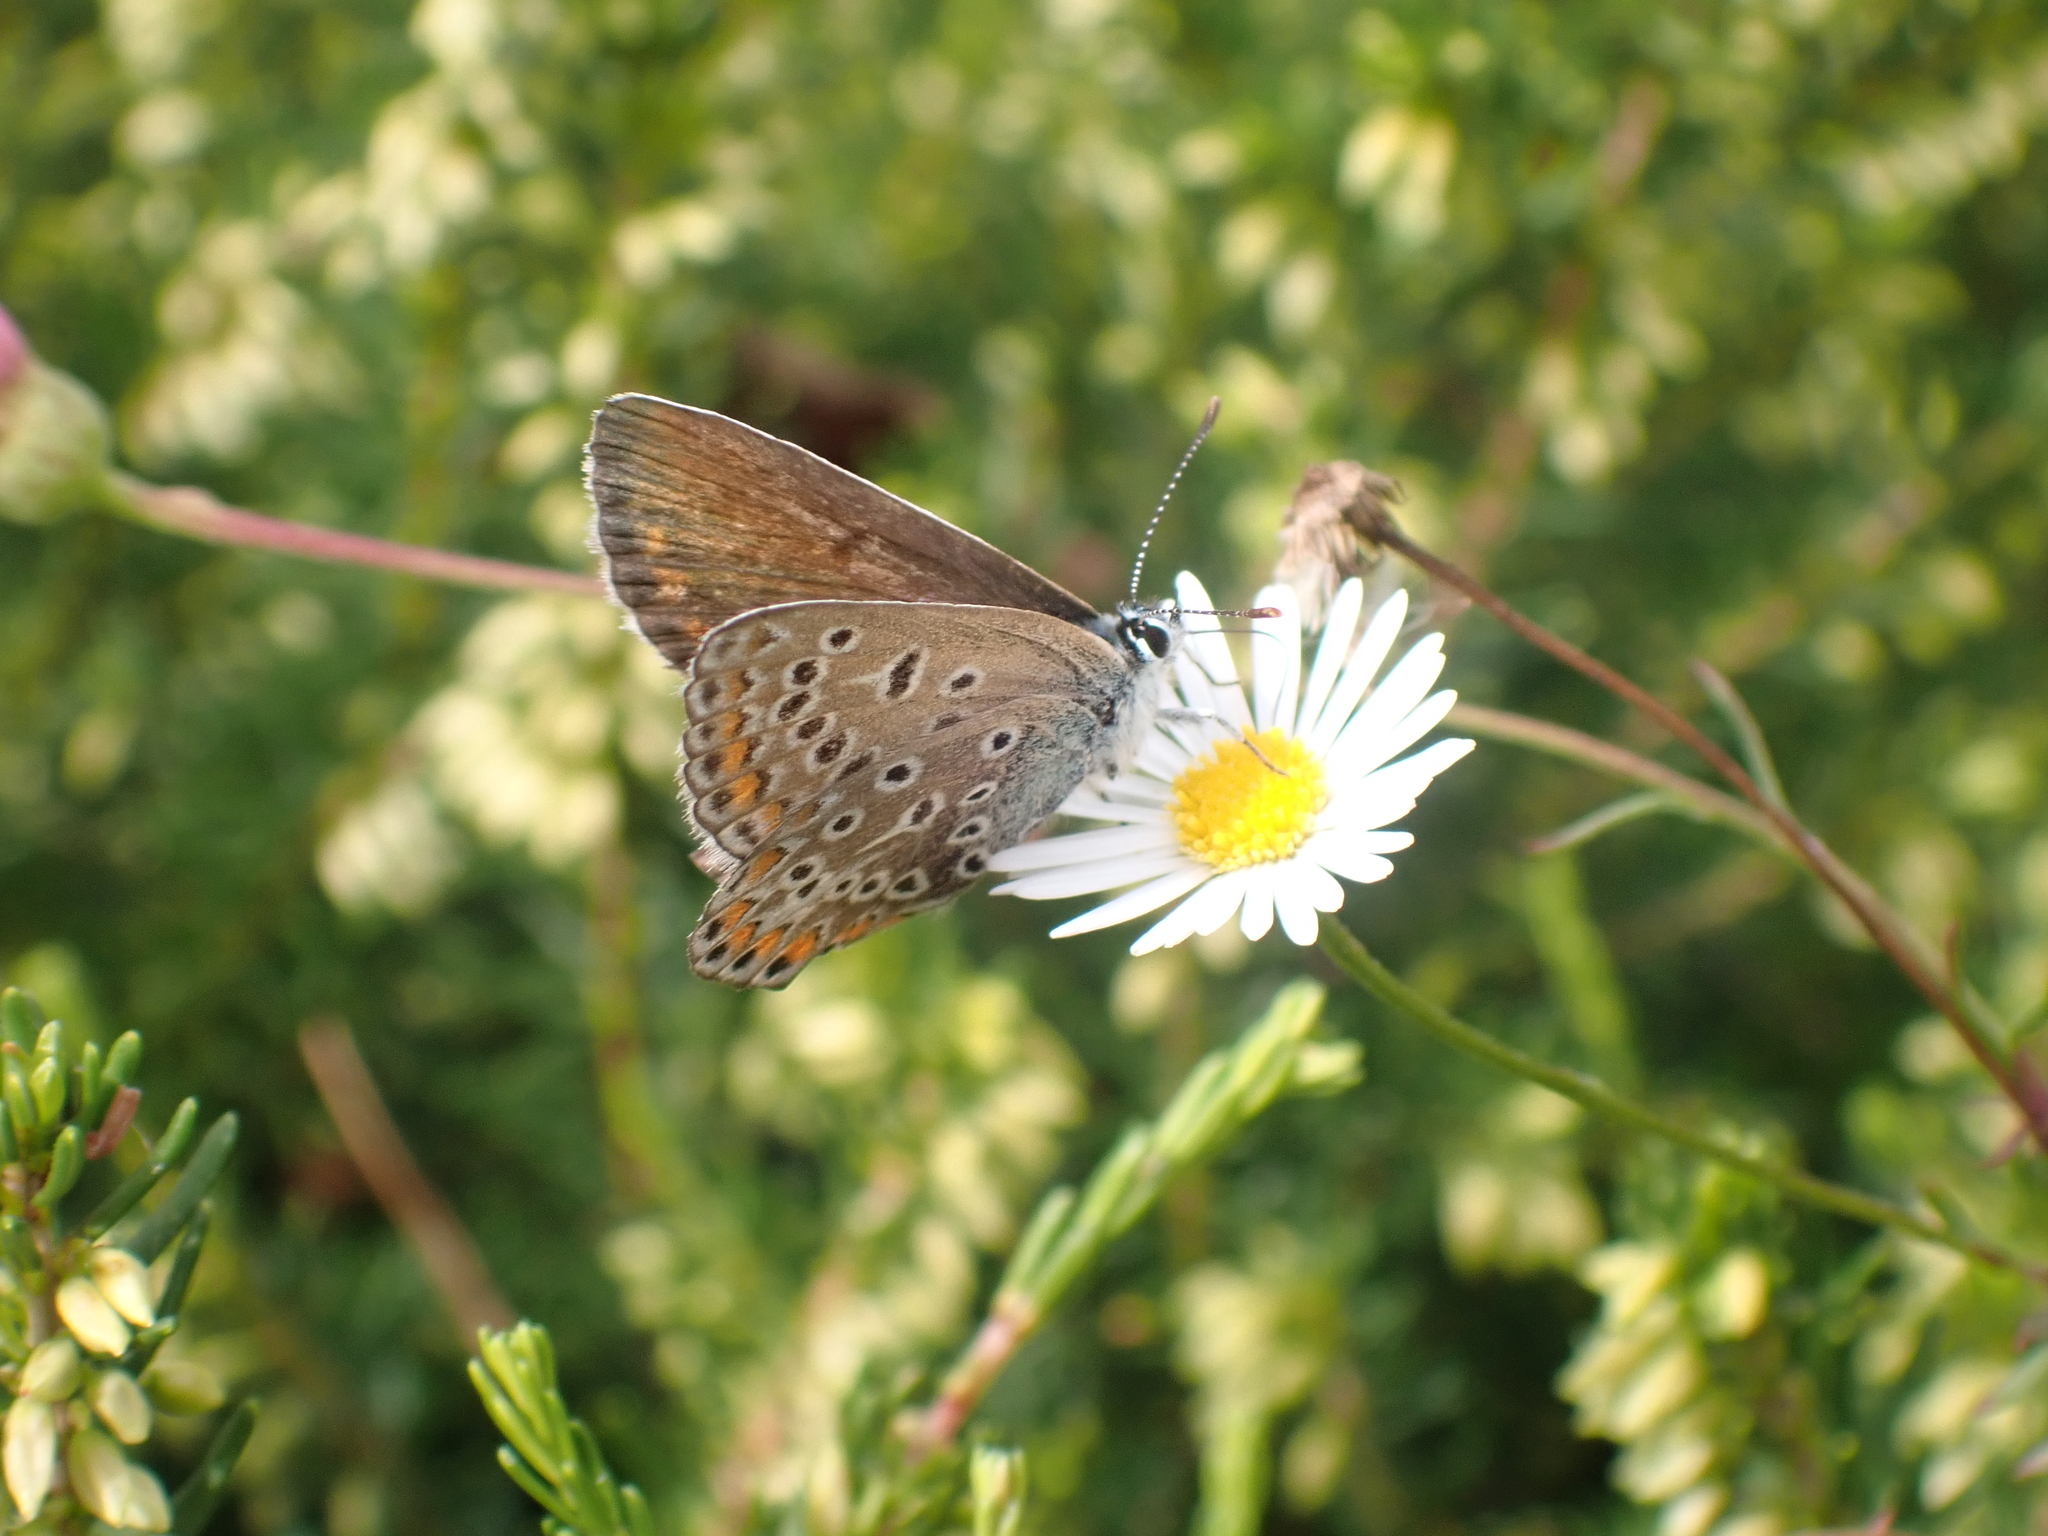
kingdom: Animalia
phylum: Arthropoda
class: Insecta
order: Lepidoptera
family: Lycaenidae
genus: Polyommatus
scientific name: Polyommatus icarus
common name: Common blue
